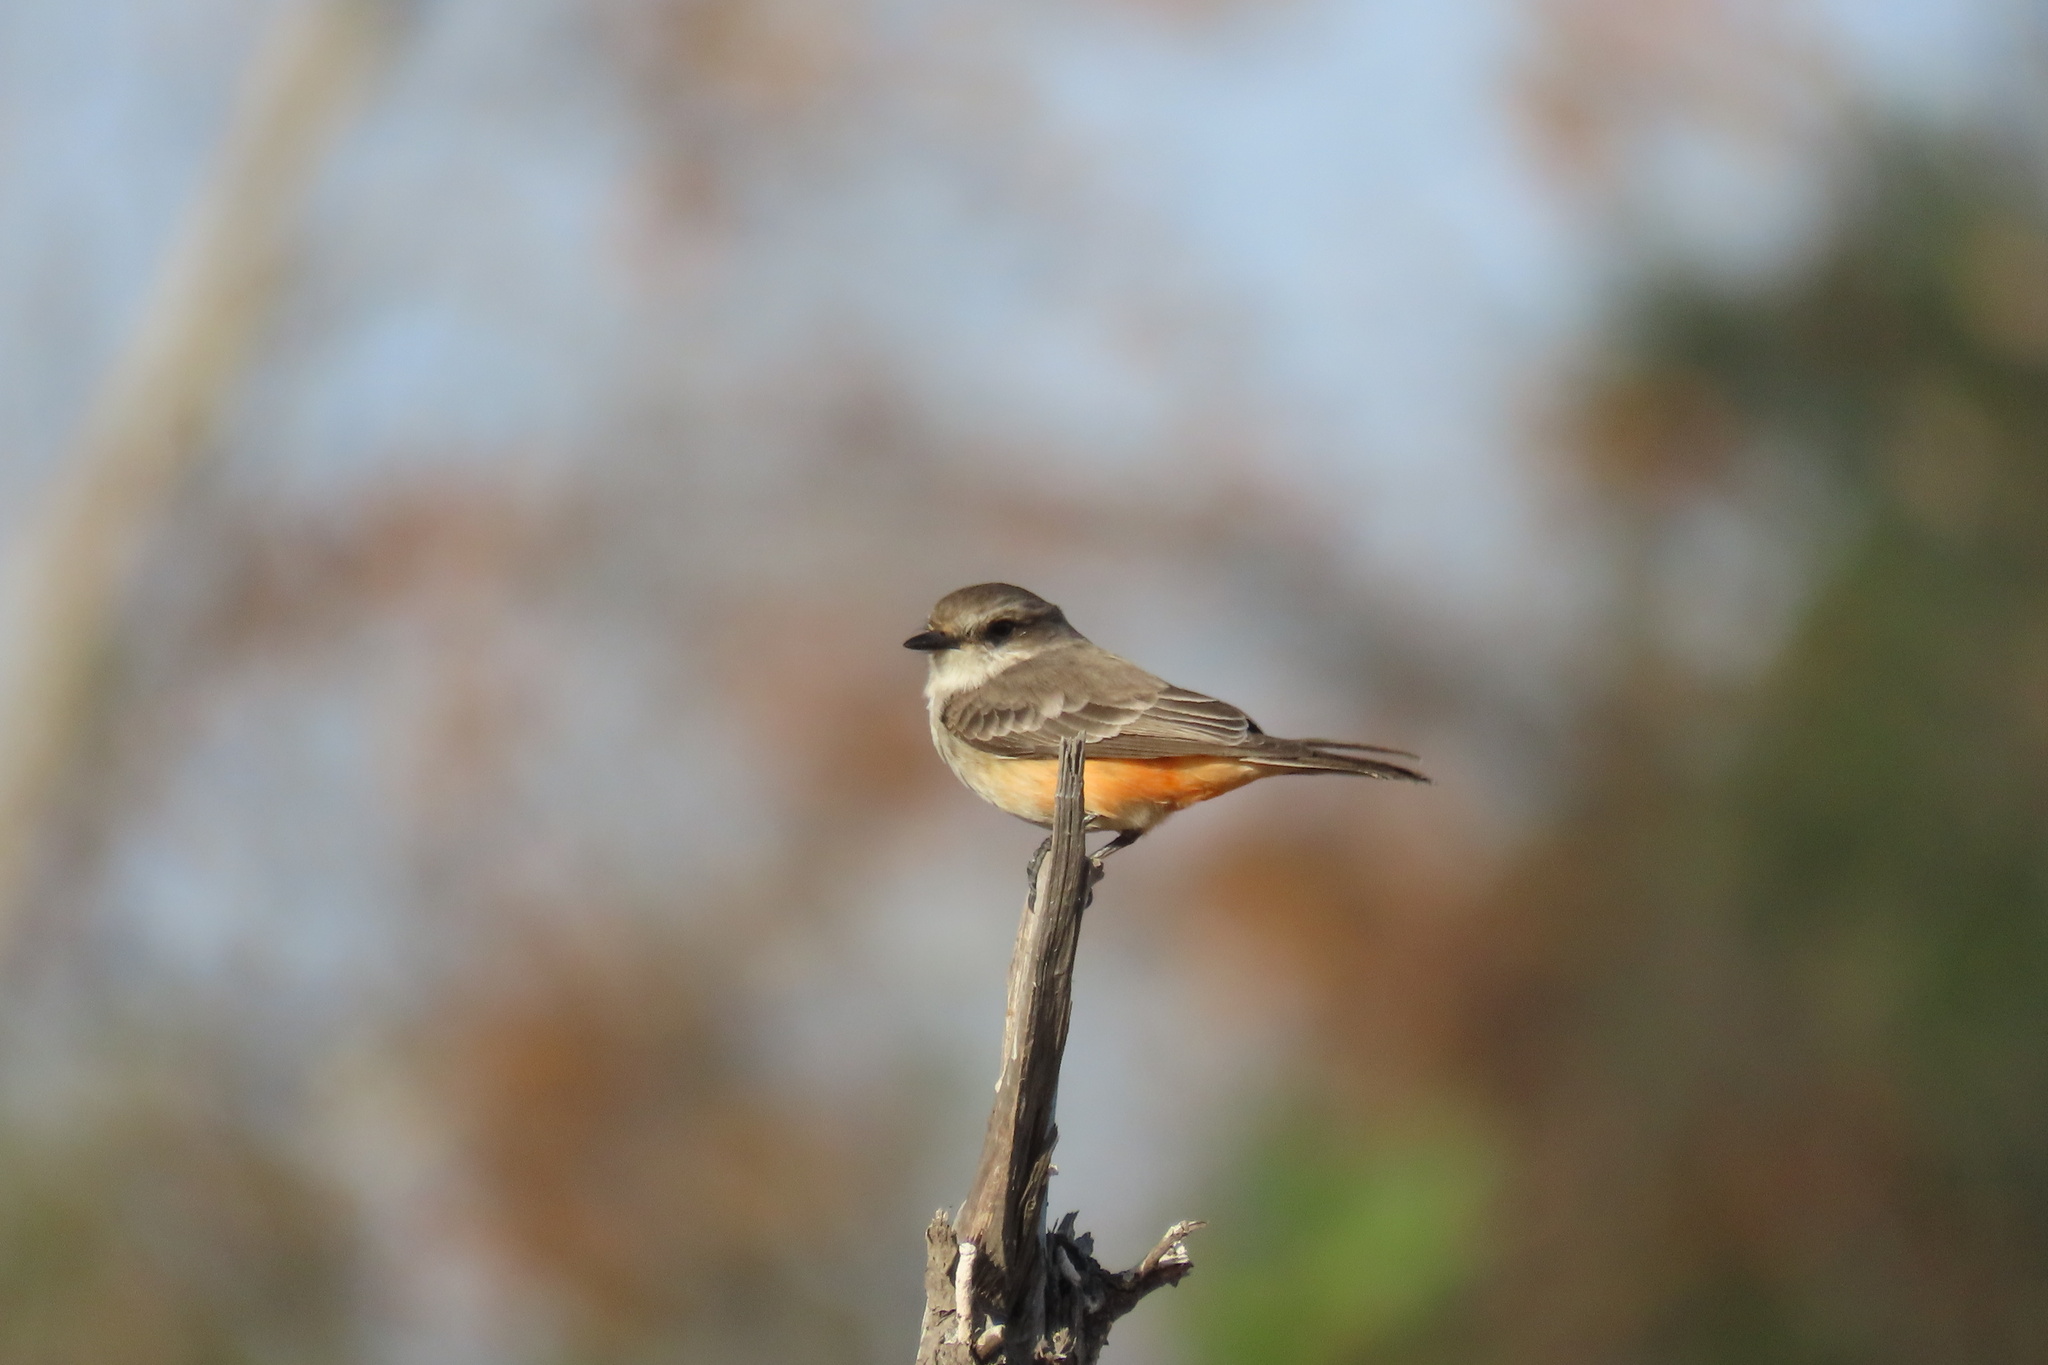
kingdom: Animalia
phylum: Chordata
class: Aves
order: Passeriformes
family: Tyrannidae
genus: Pyrocephalus
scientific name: Pyrocephalus rubinus
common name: Vermilion flycatcher
